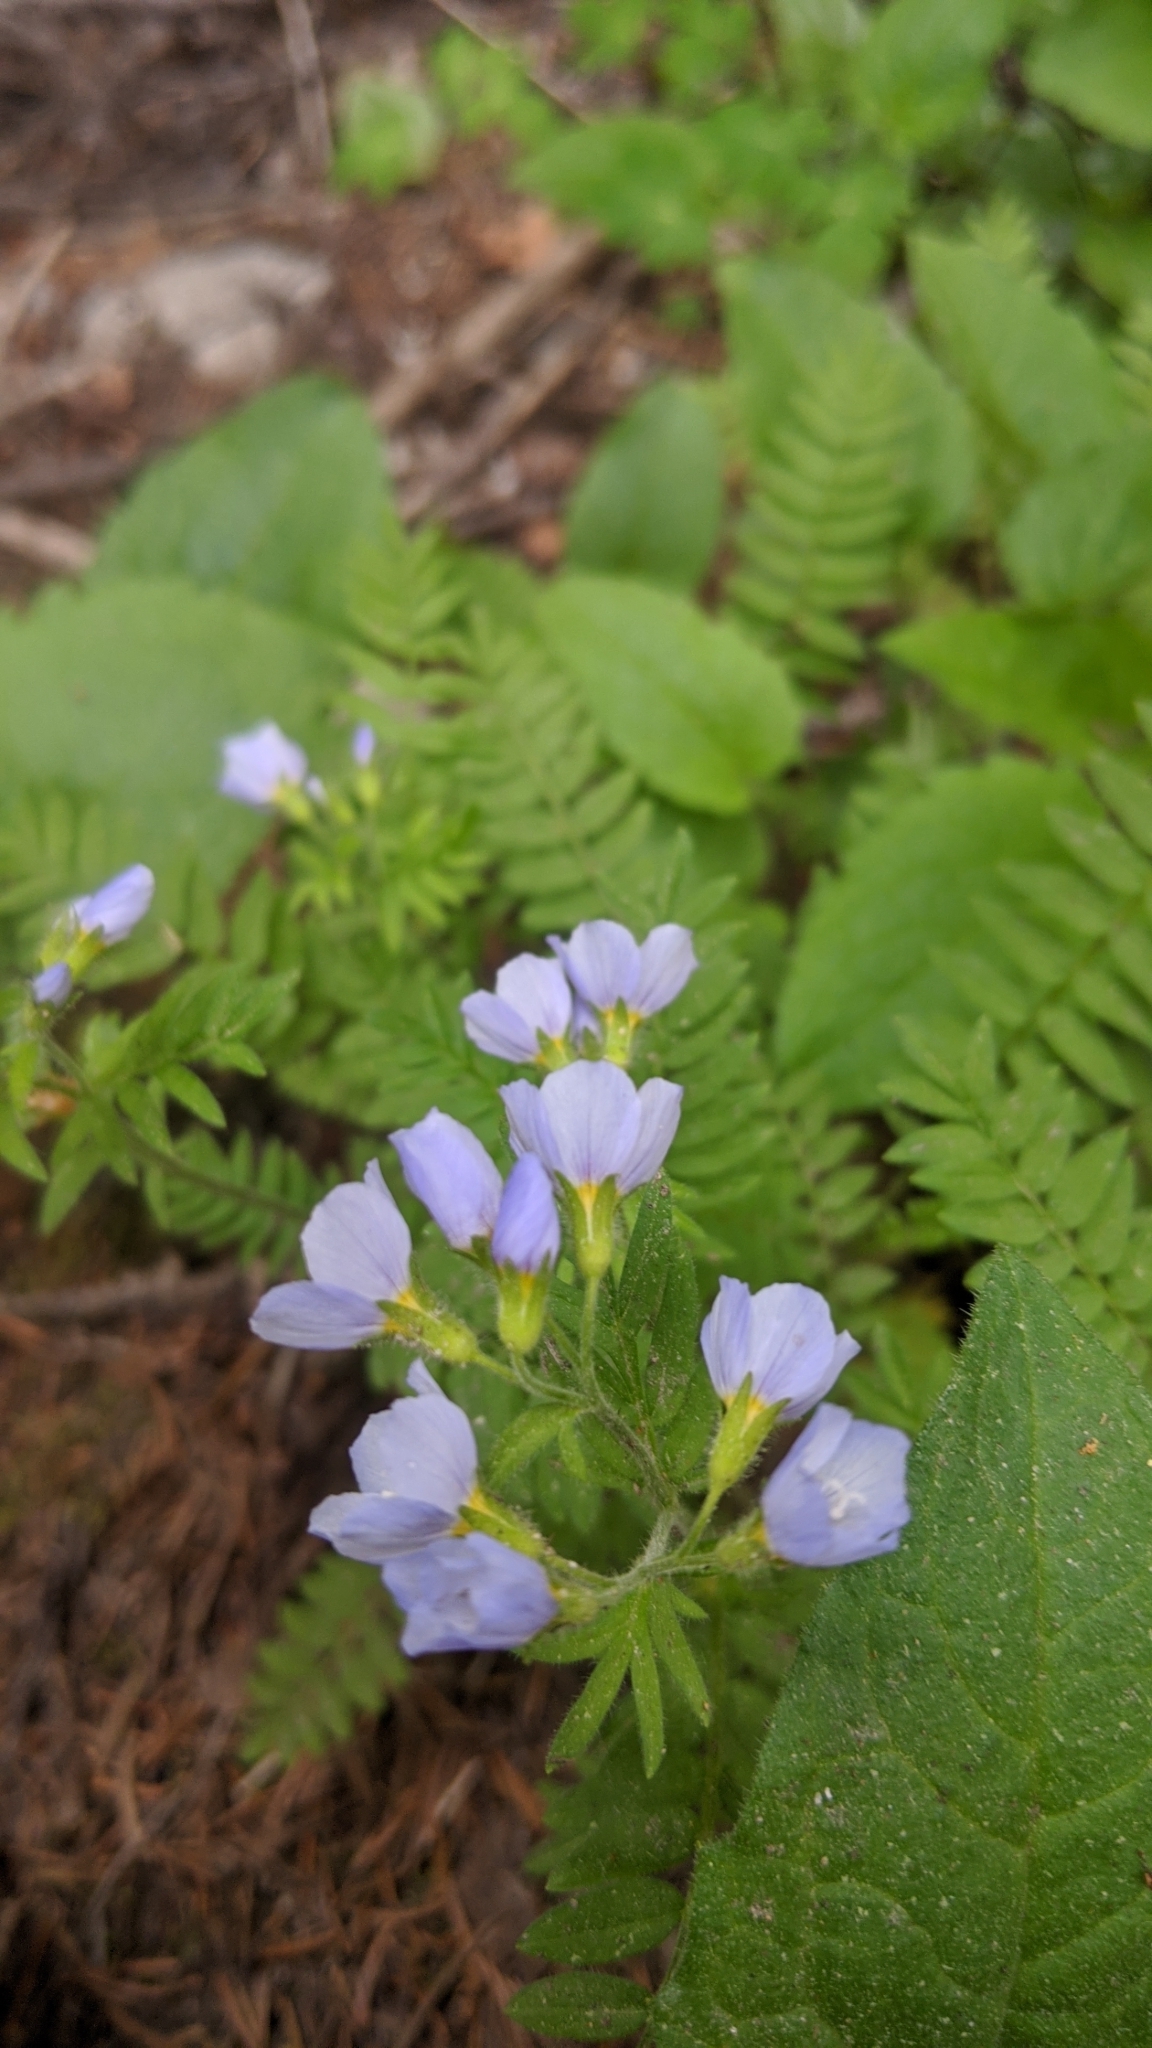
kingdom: Plantae
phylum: Tracheophyta
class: Magnoliopsida
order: Ericales
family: Polemoniaceae
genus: Polemonium
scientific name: Polemonium pulcherrimum
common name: Short jacob's-ladder
